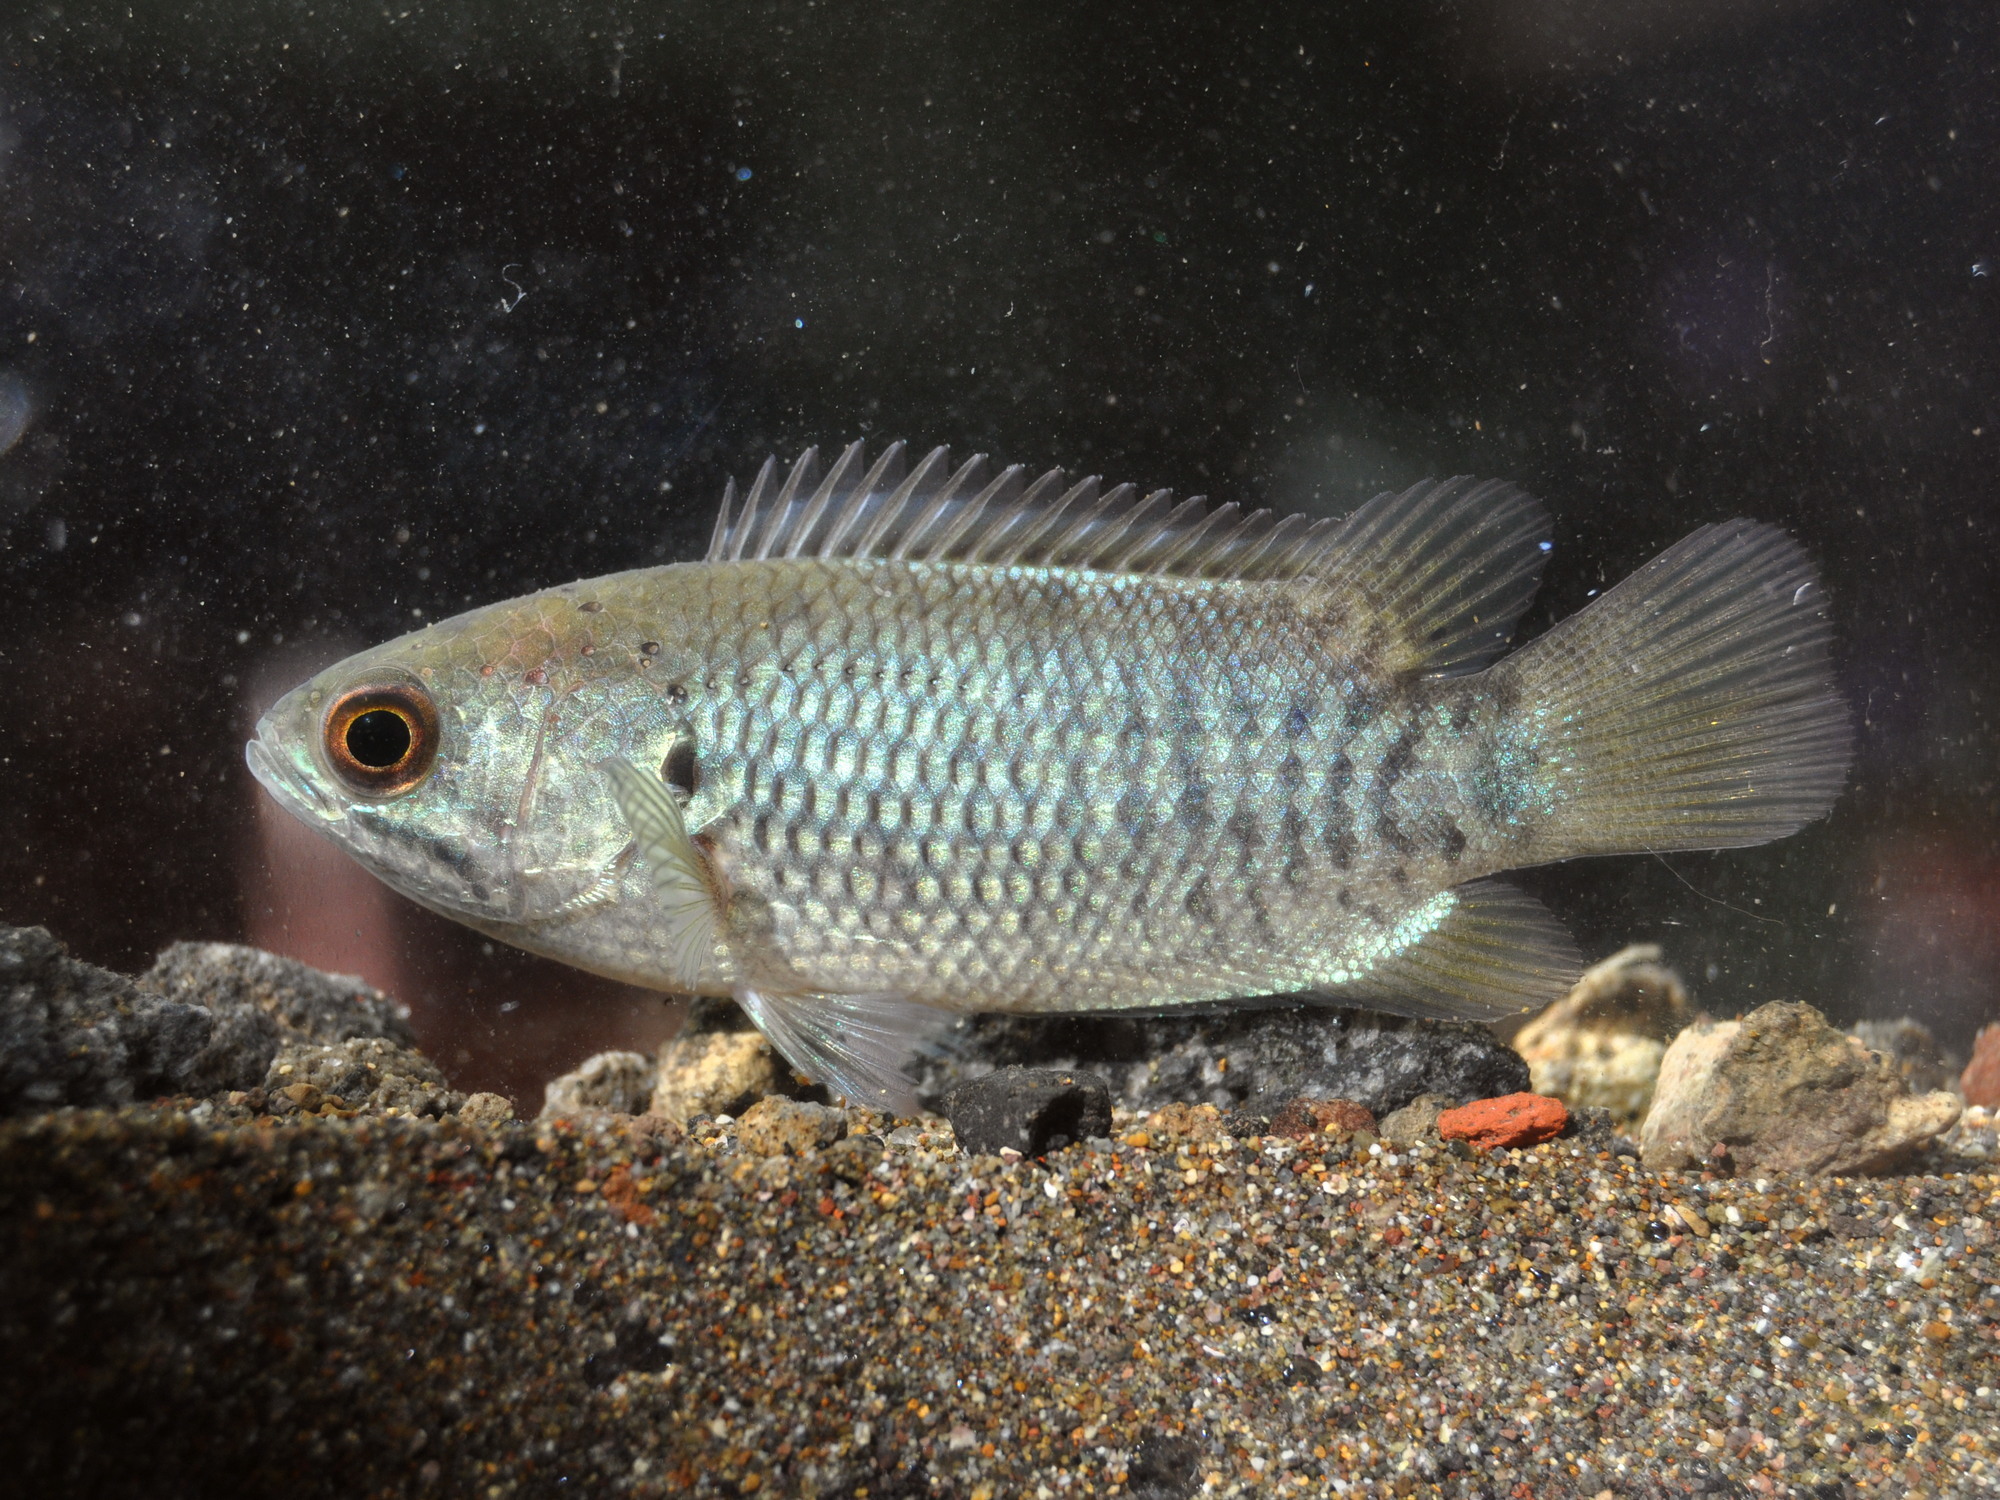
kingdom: Animalia
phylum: Chordata
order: Perciformes
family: Anabantidae
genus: Anabas
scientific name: Anabas testudineus
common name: Climbing perch
